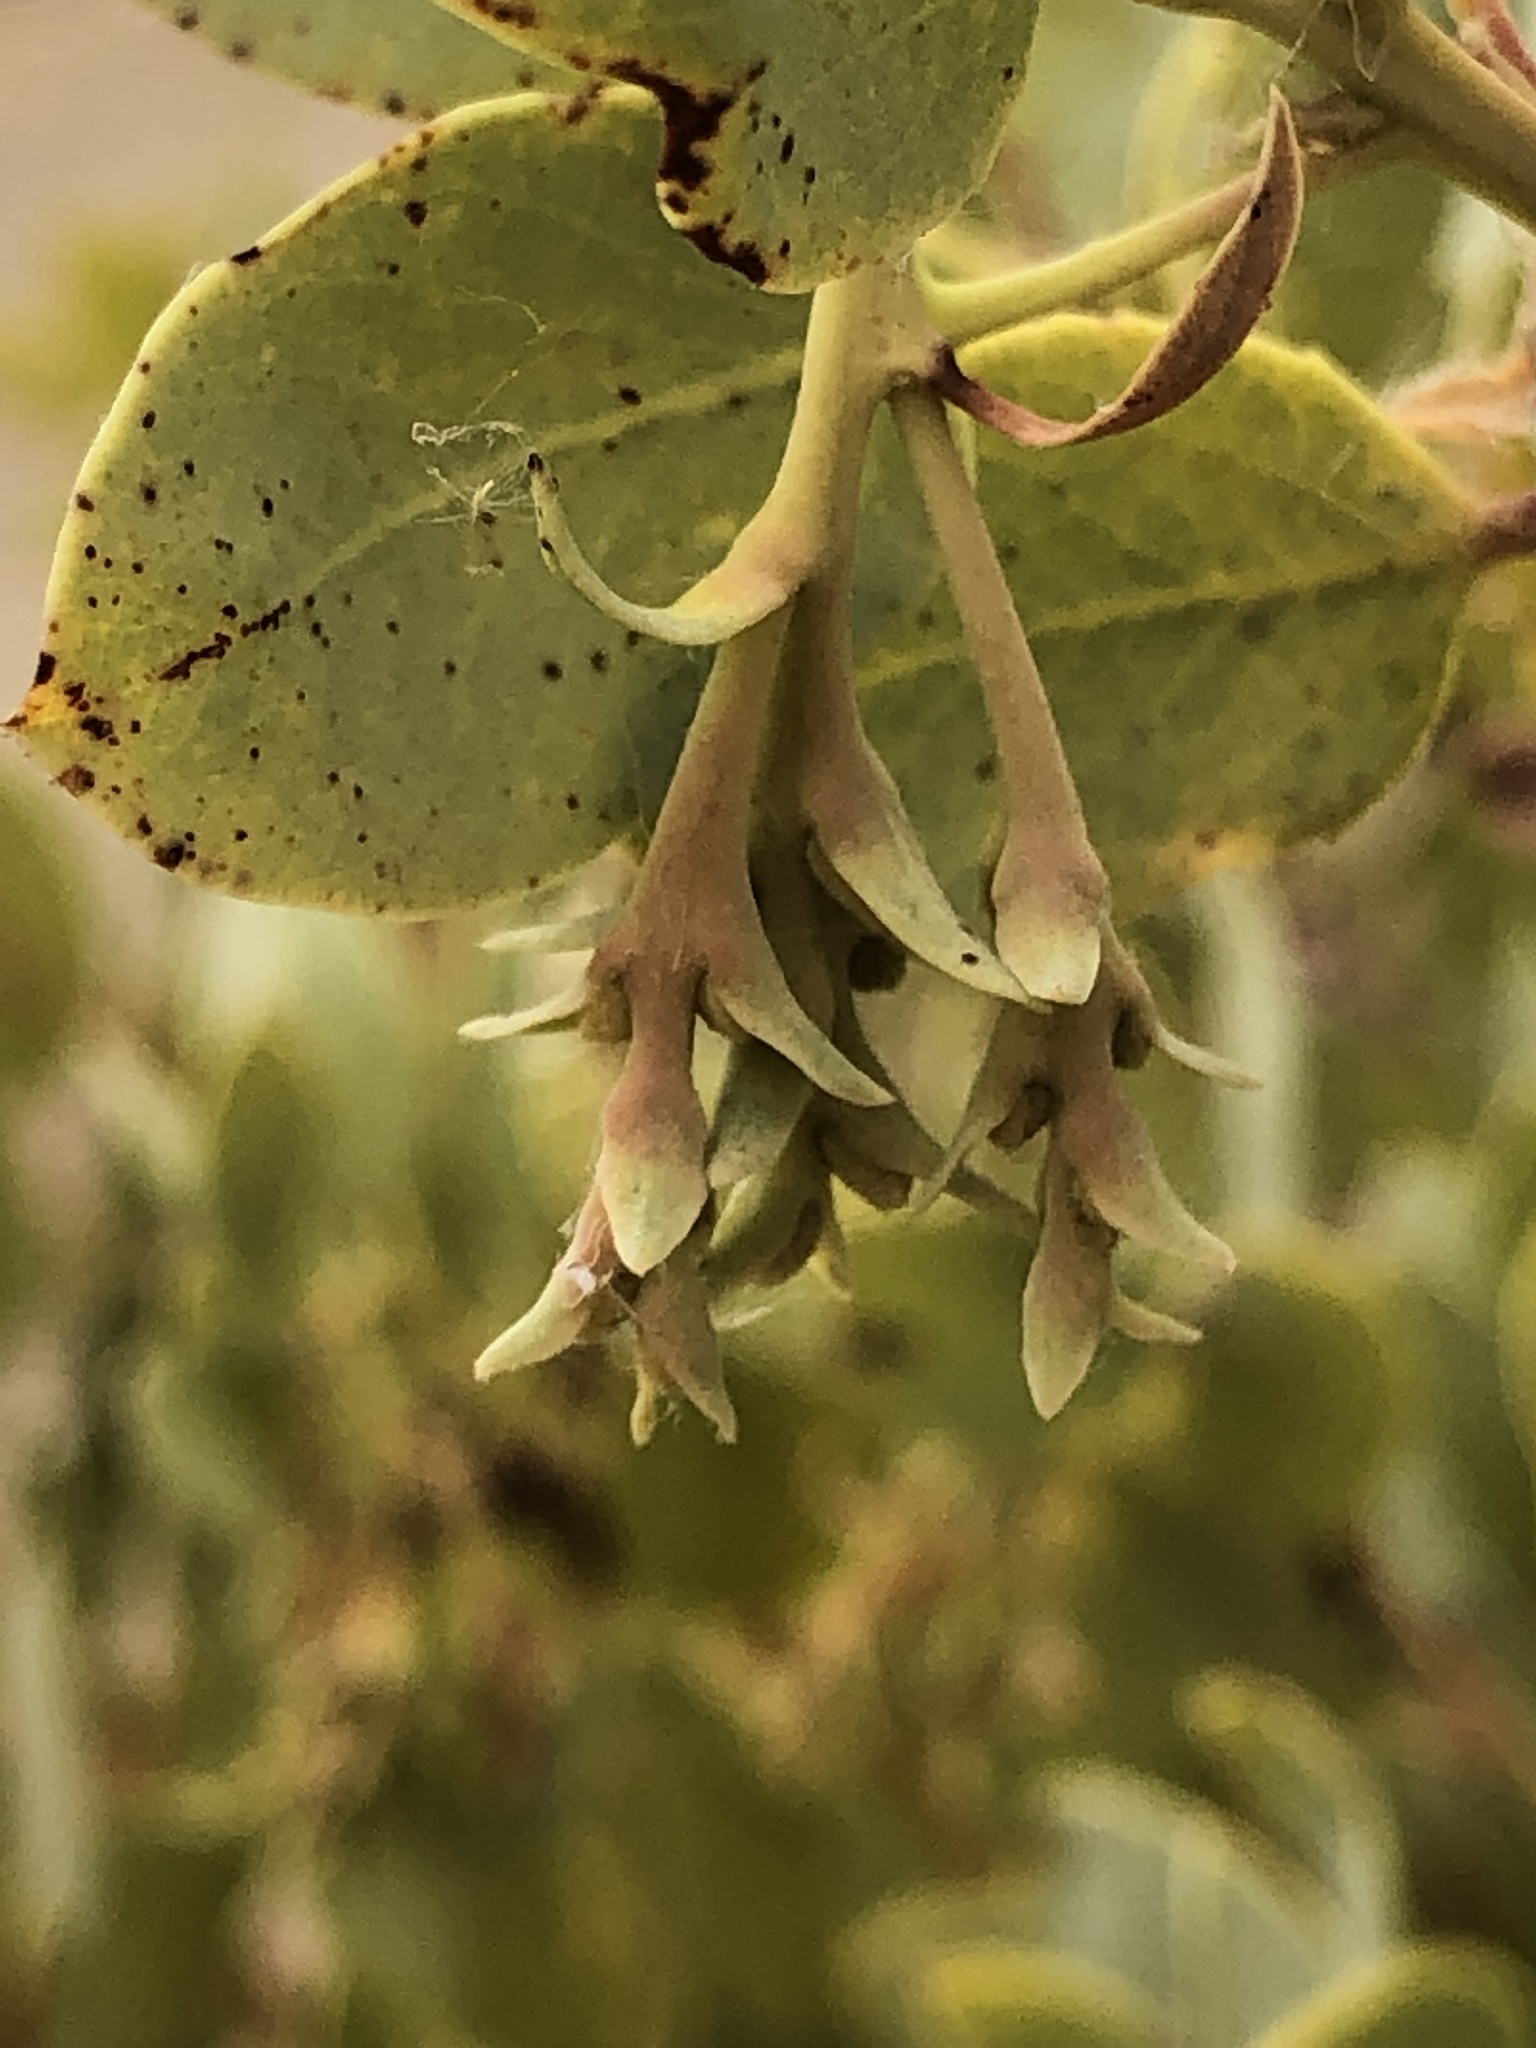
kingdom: Plantae
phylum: Tracheophyta
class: Magnoliopsida
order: Ericales
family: Ericaceae
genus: Arctostaphylos
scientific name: Arctostaphylos glauca
